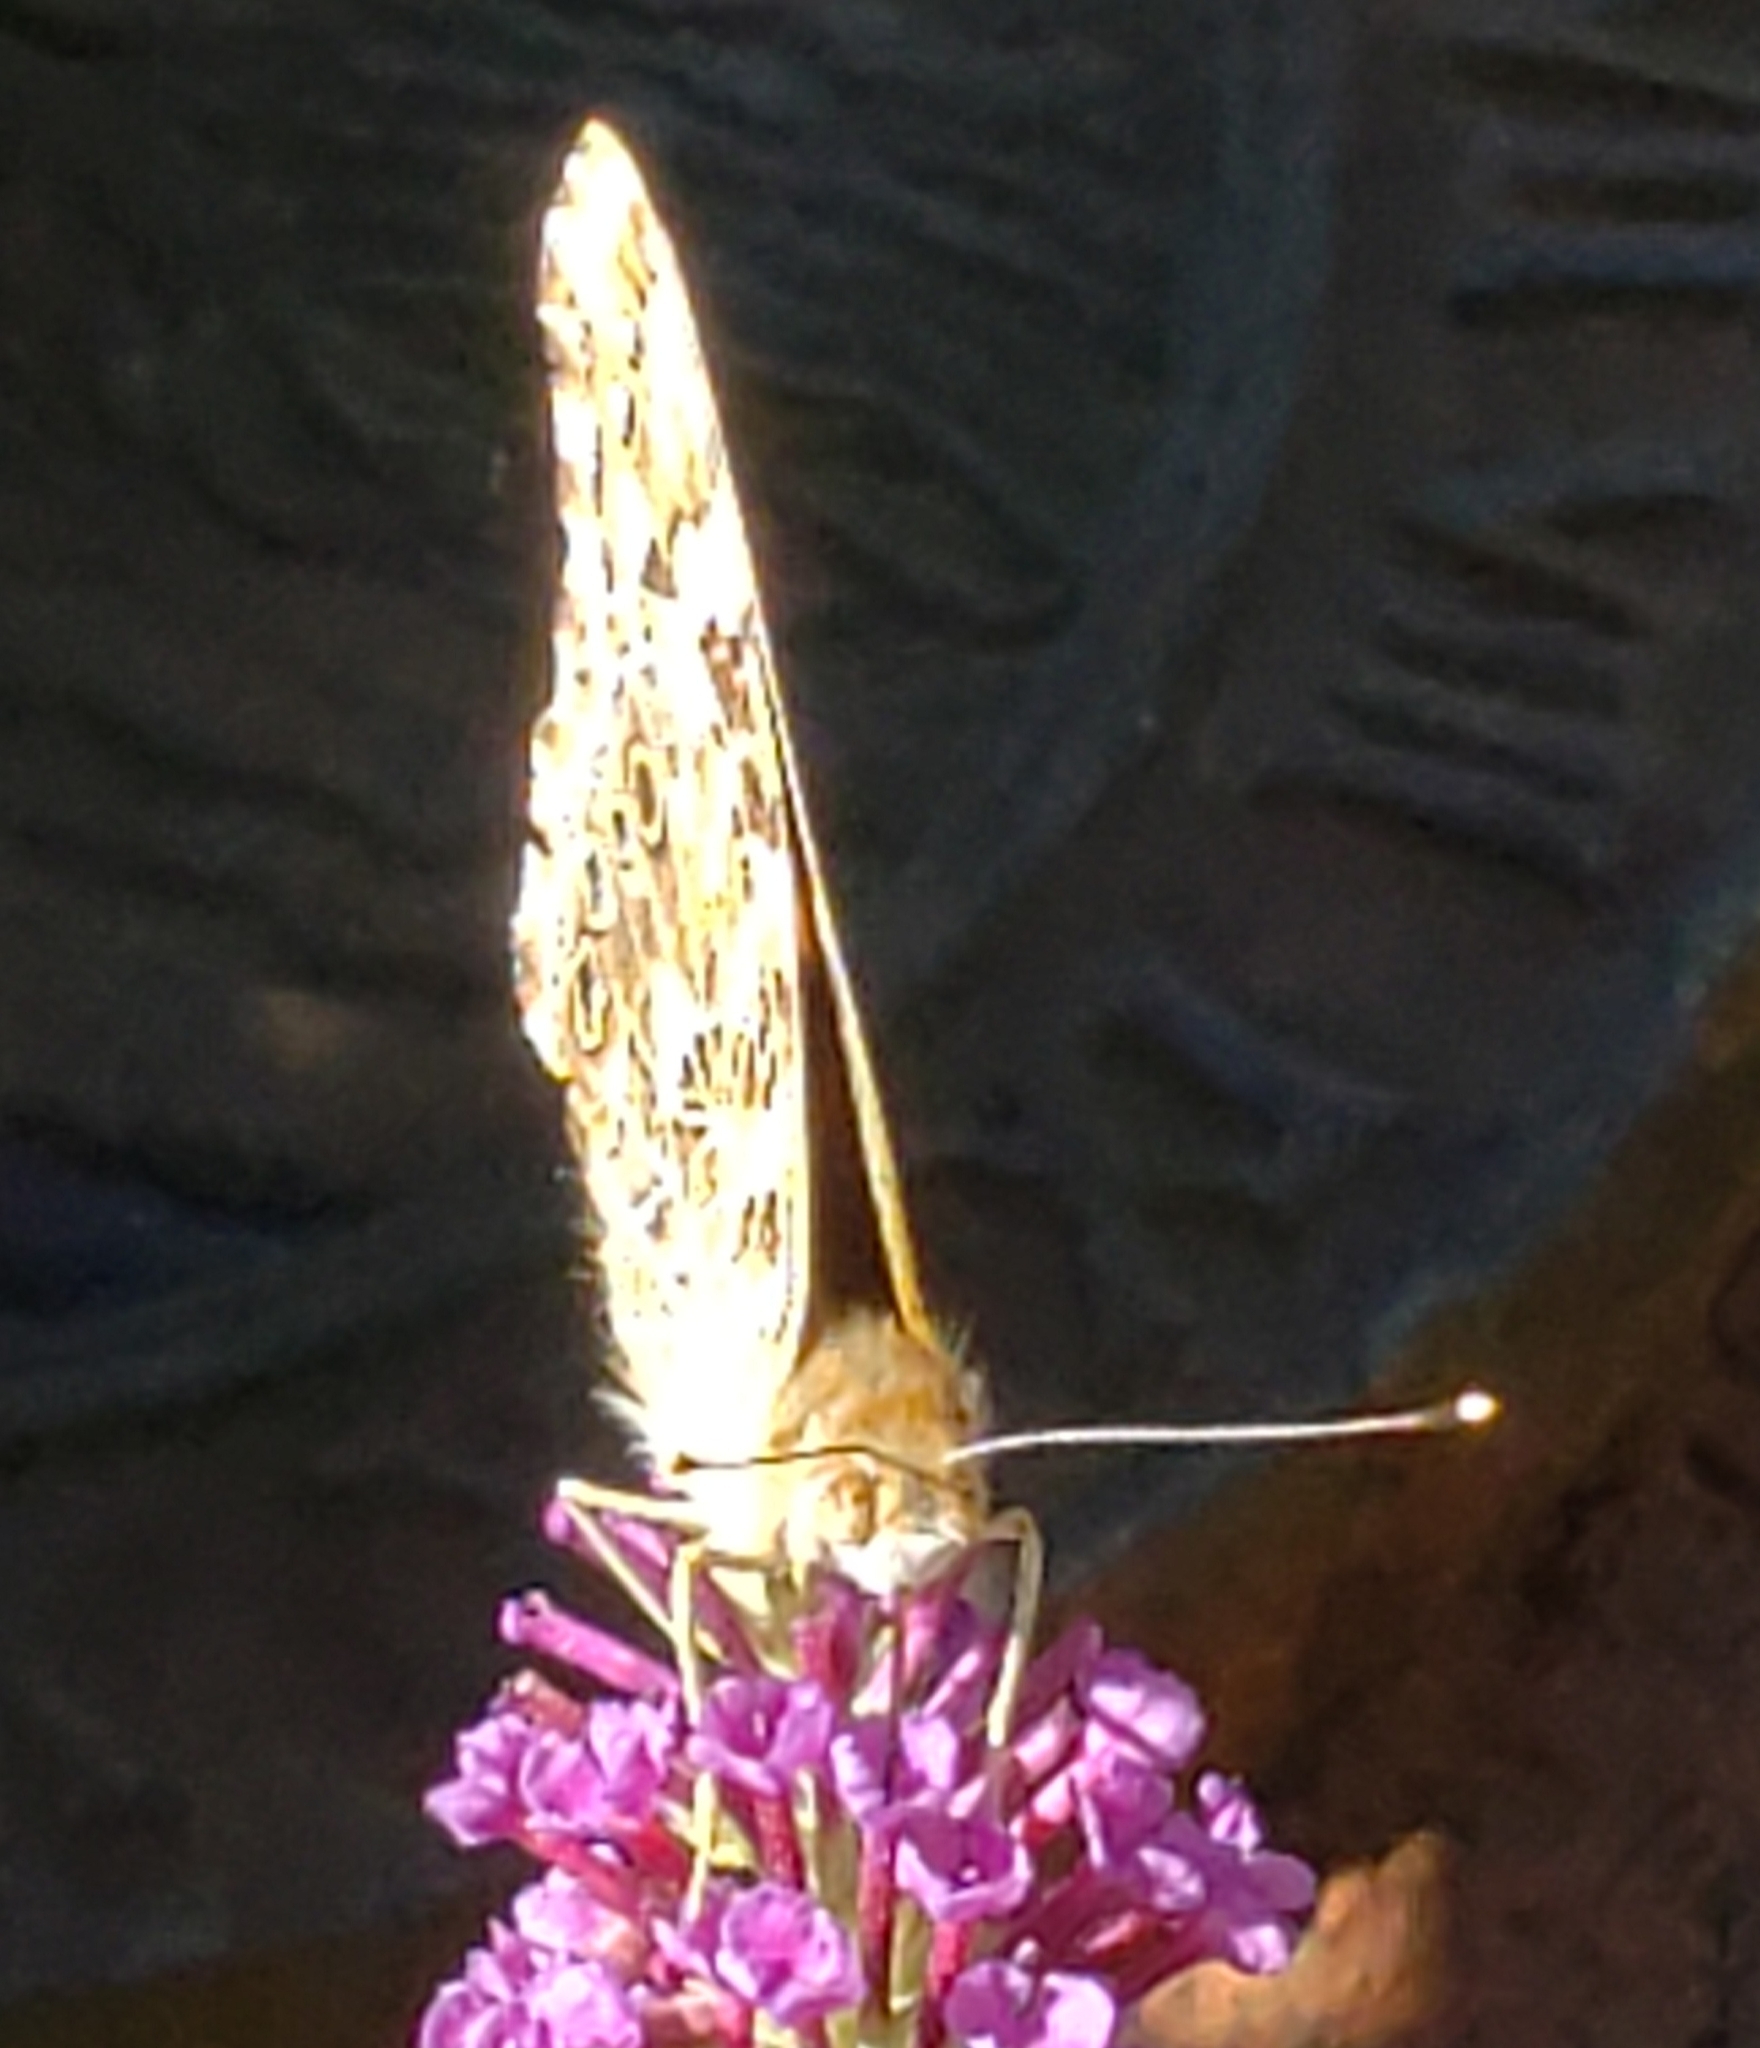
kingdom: Animalia
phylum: Arthropoda
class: Insecta
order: Lepidoptera
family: Nymphalidae
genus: Vanessa
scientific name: Vanessa cardui
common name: Painted lady
